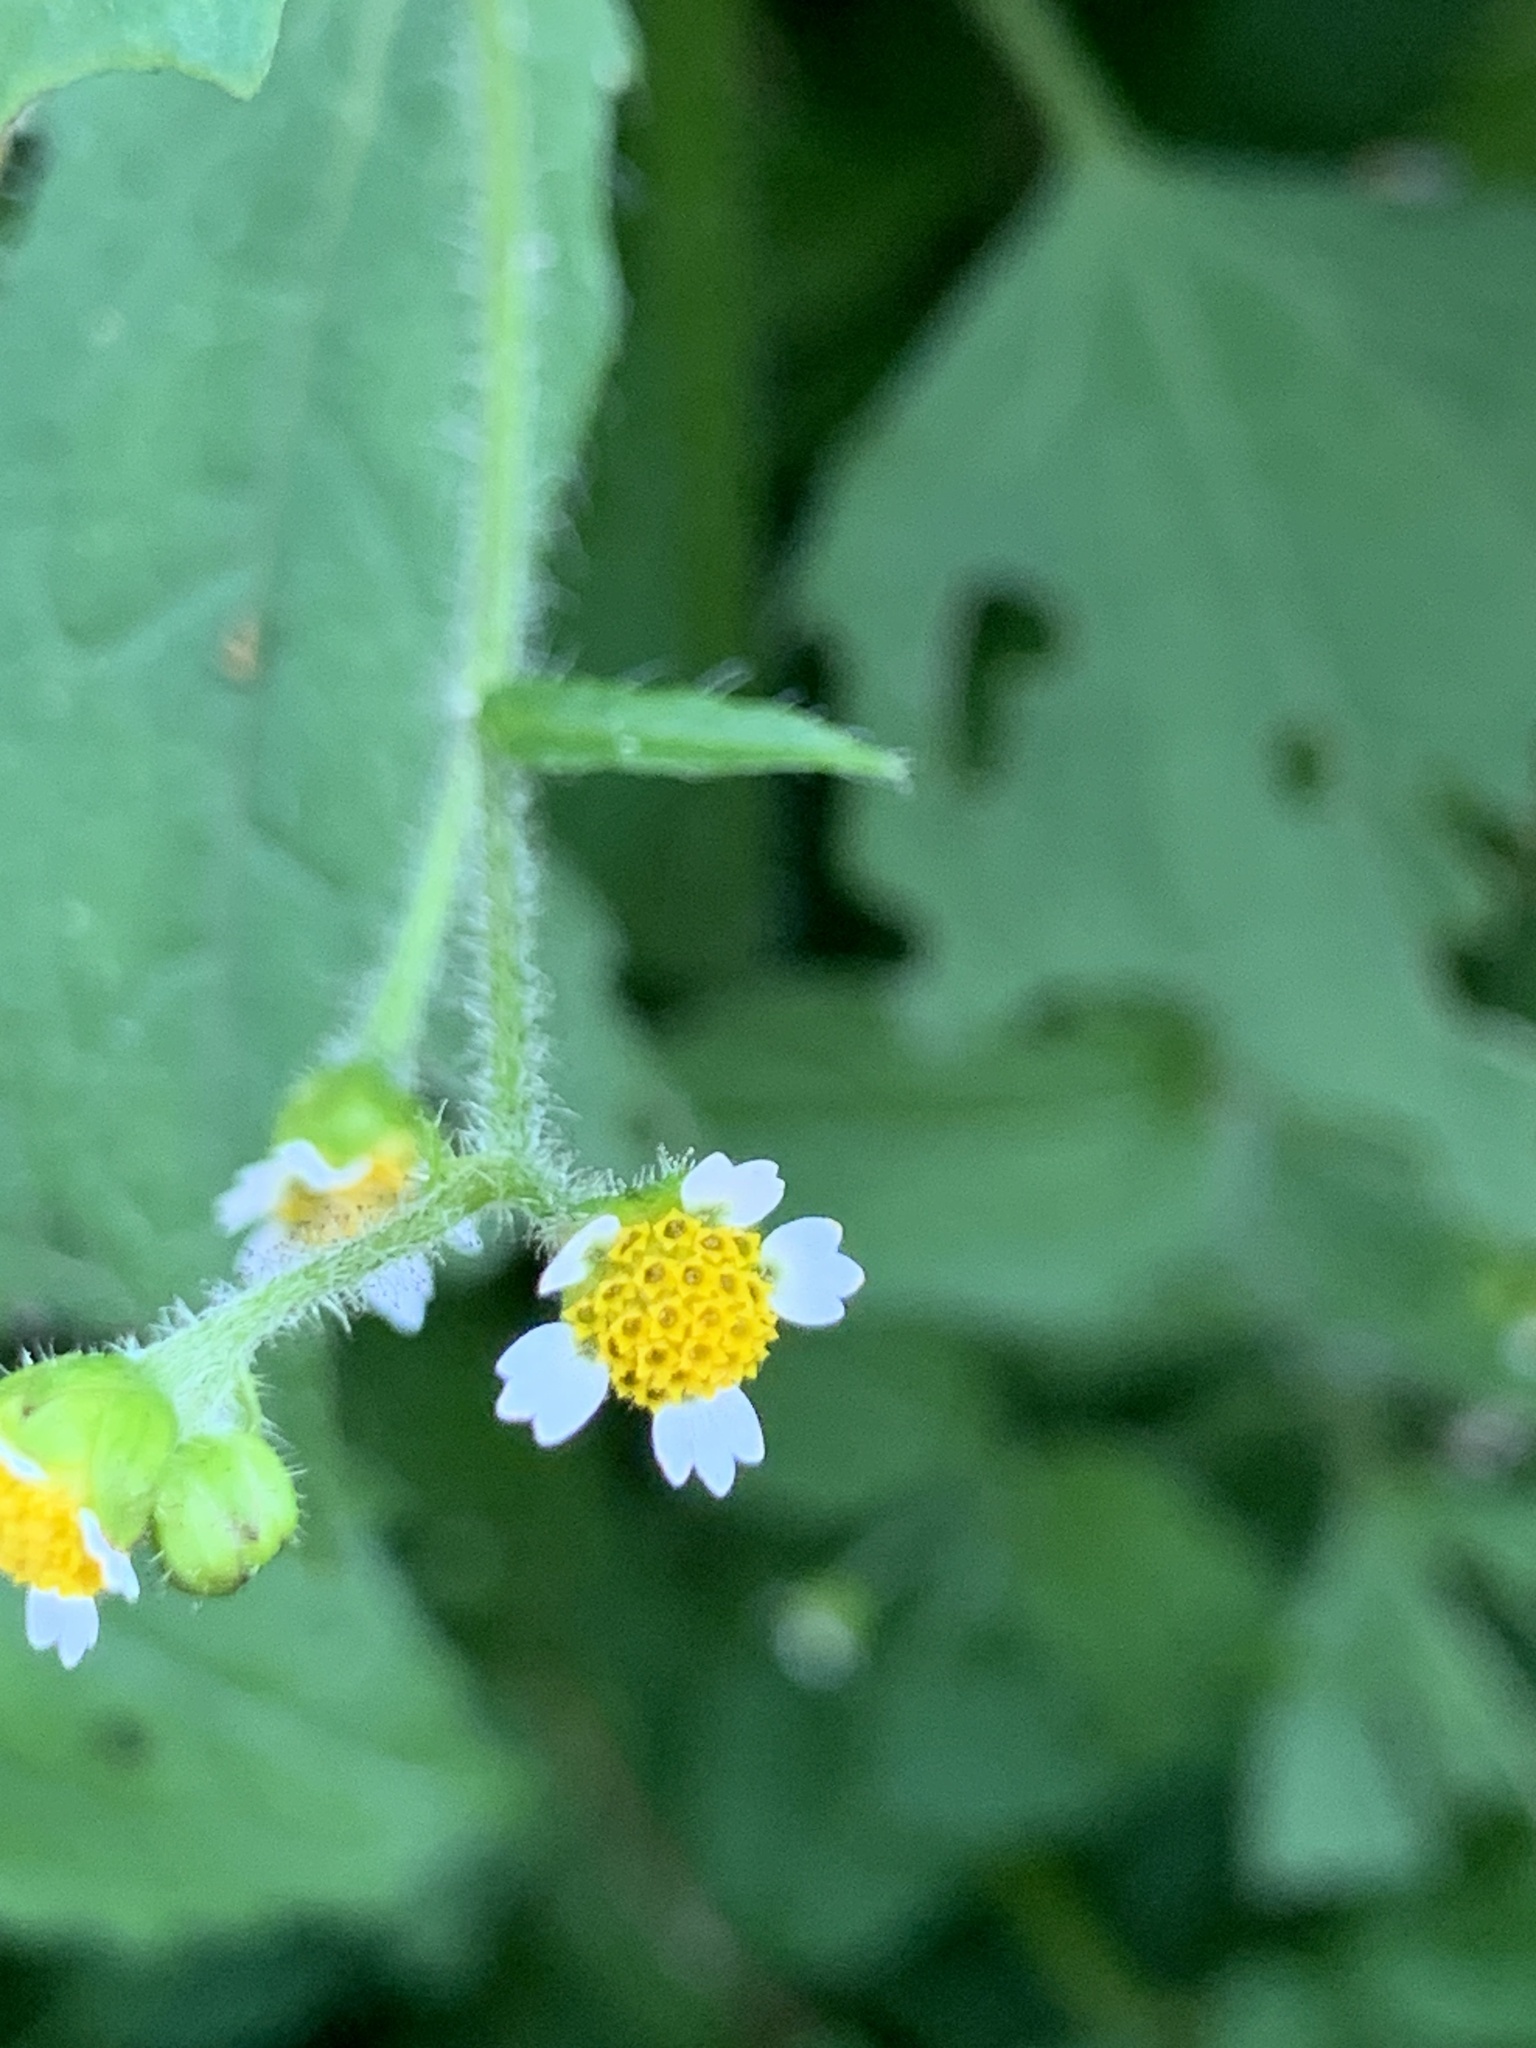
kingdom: Plantae
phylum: Tracheophyta
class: Magnoliopsida
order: Asterales
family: Asteraceae
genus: Galinsoga
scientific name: Galinsoga quadriradiata
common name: Shaggy soldier
